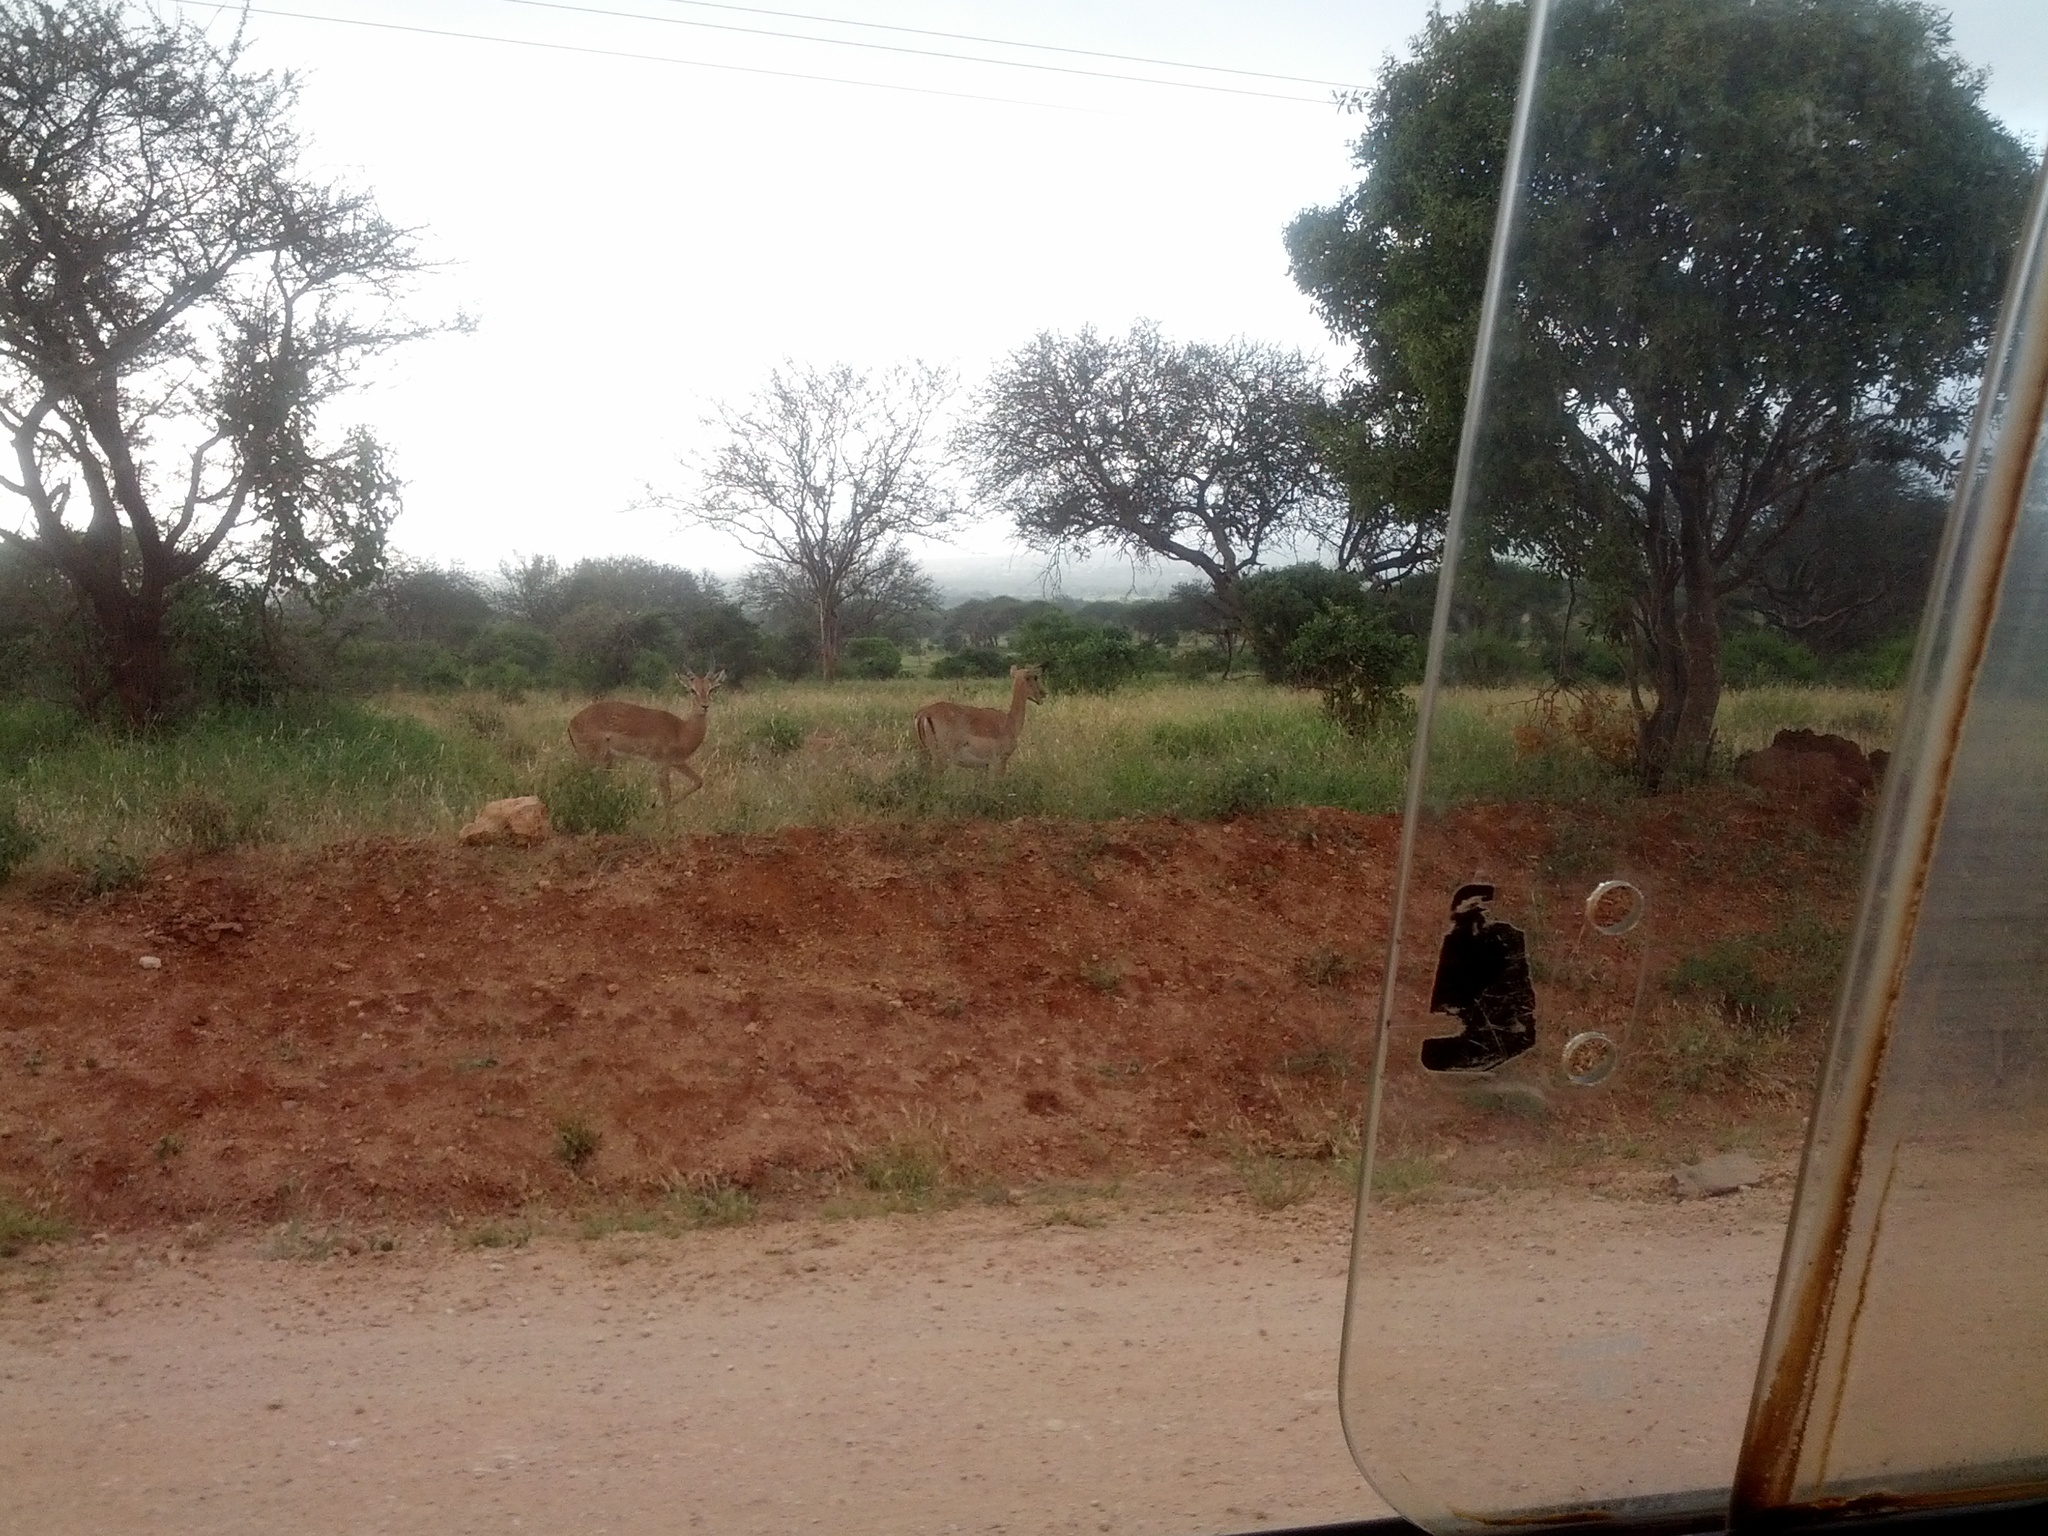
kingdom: Animalia
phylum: Chordata
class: Mammalia
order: Artiodactyla
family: Bovidae
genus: Aepyceros
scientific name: Aepyceros melampus
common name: Impala
